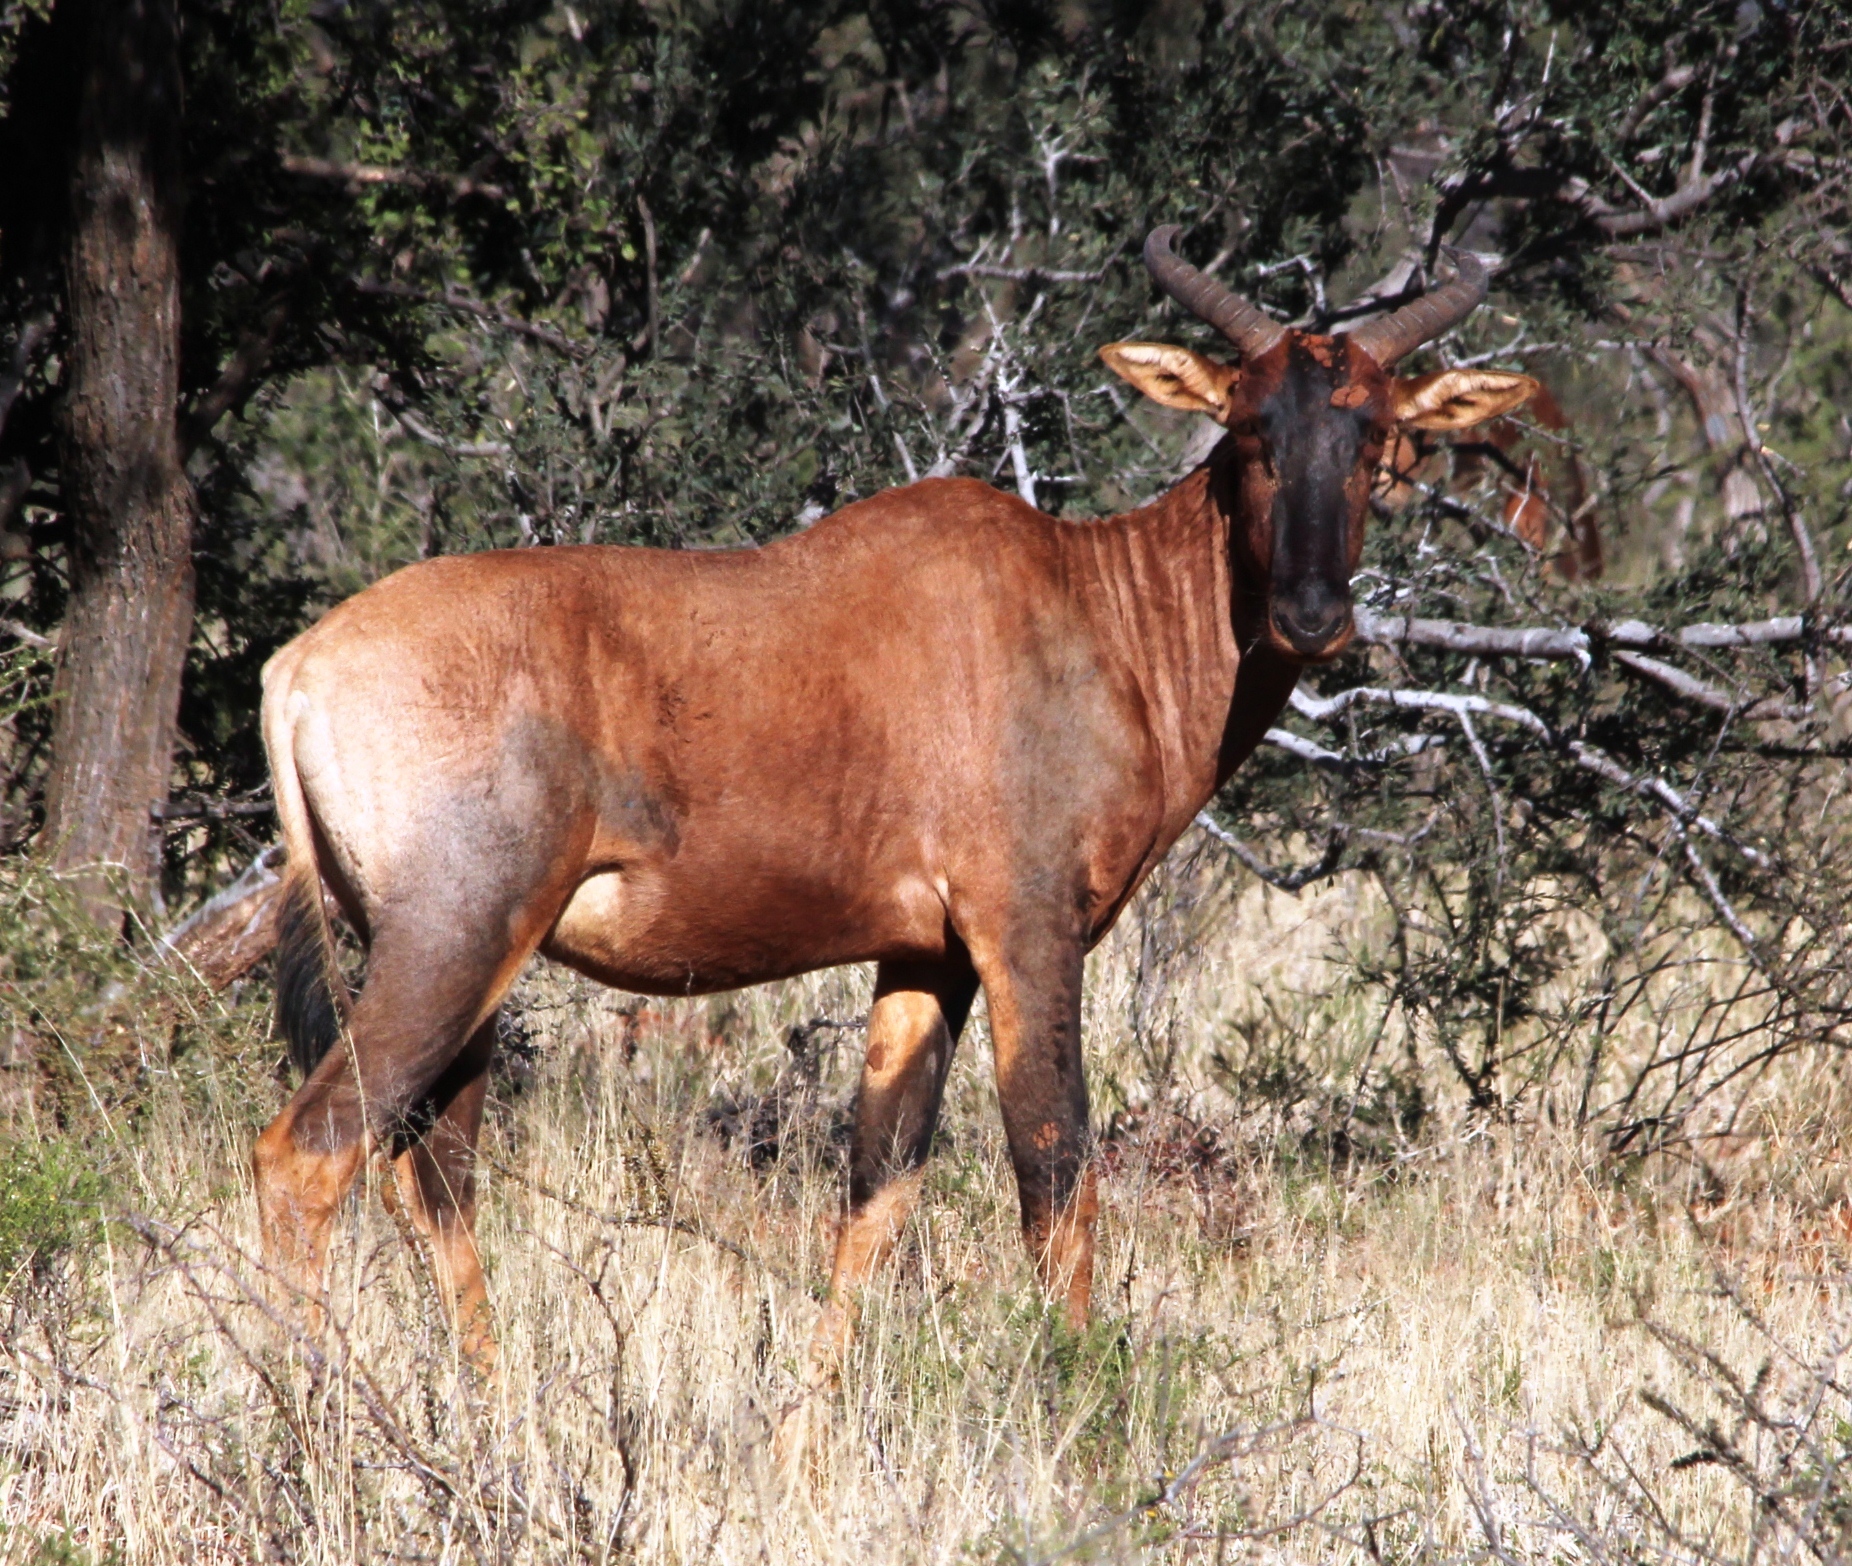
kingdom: Animalia
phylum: Chordata
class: Mammalia
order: Artiodactyla
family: Bovidae
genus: Damaliscus
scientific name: Damaliscus lunatus
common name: Common tsessebe
